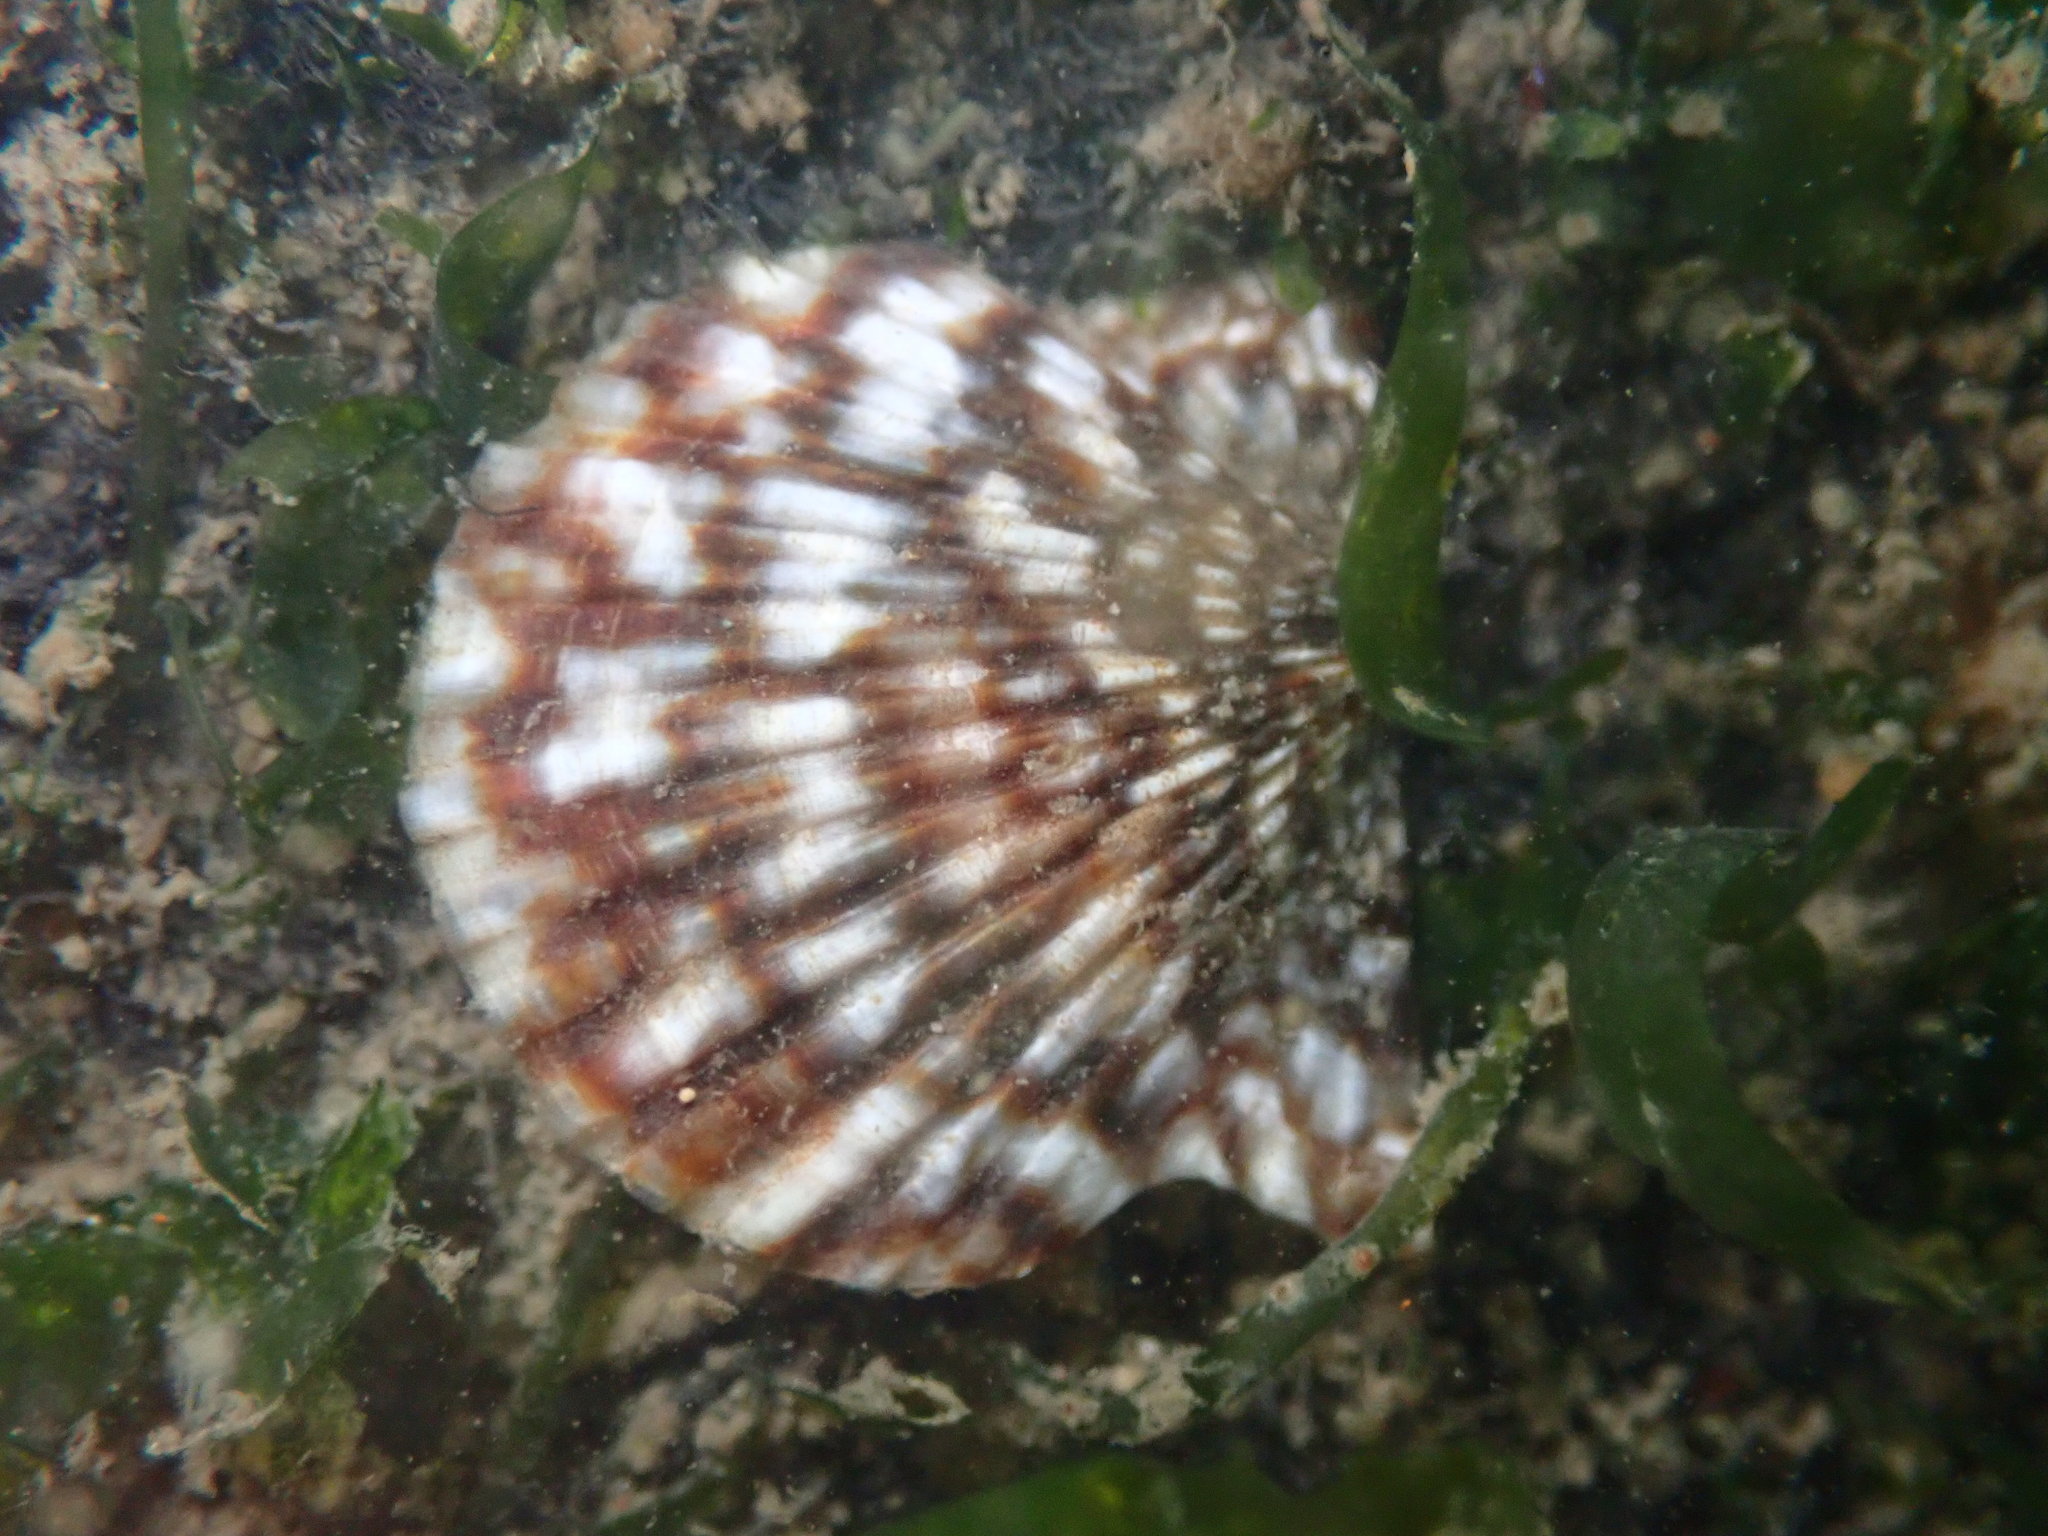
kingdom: Animalia
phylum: Mollusca
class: Bivalvia
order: Pectinida
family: Pectinidae
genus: Leptopecten
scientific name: Leptopecten latiauratus
